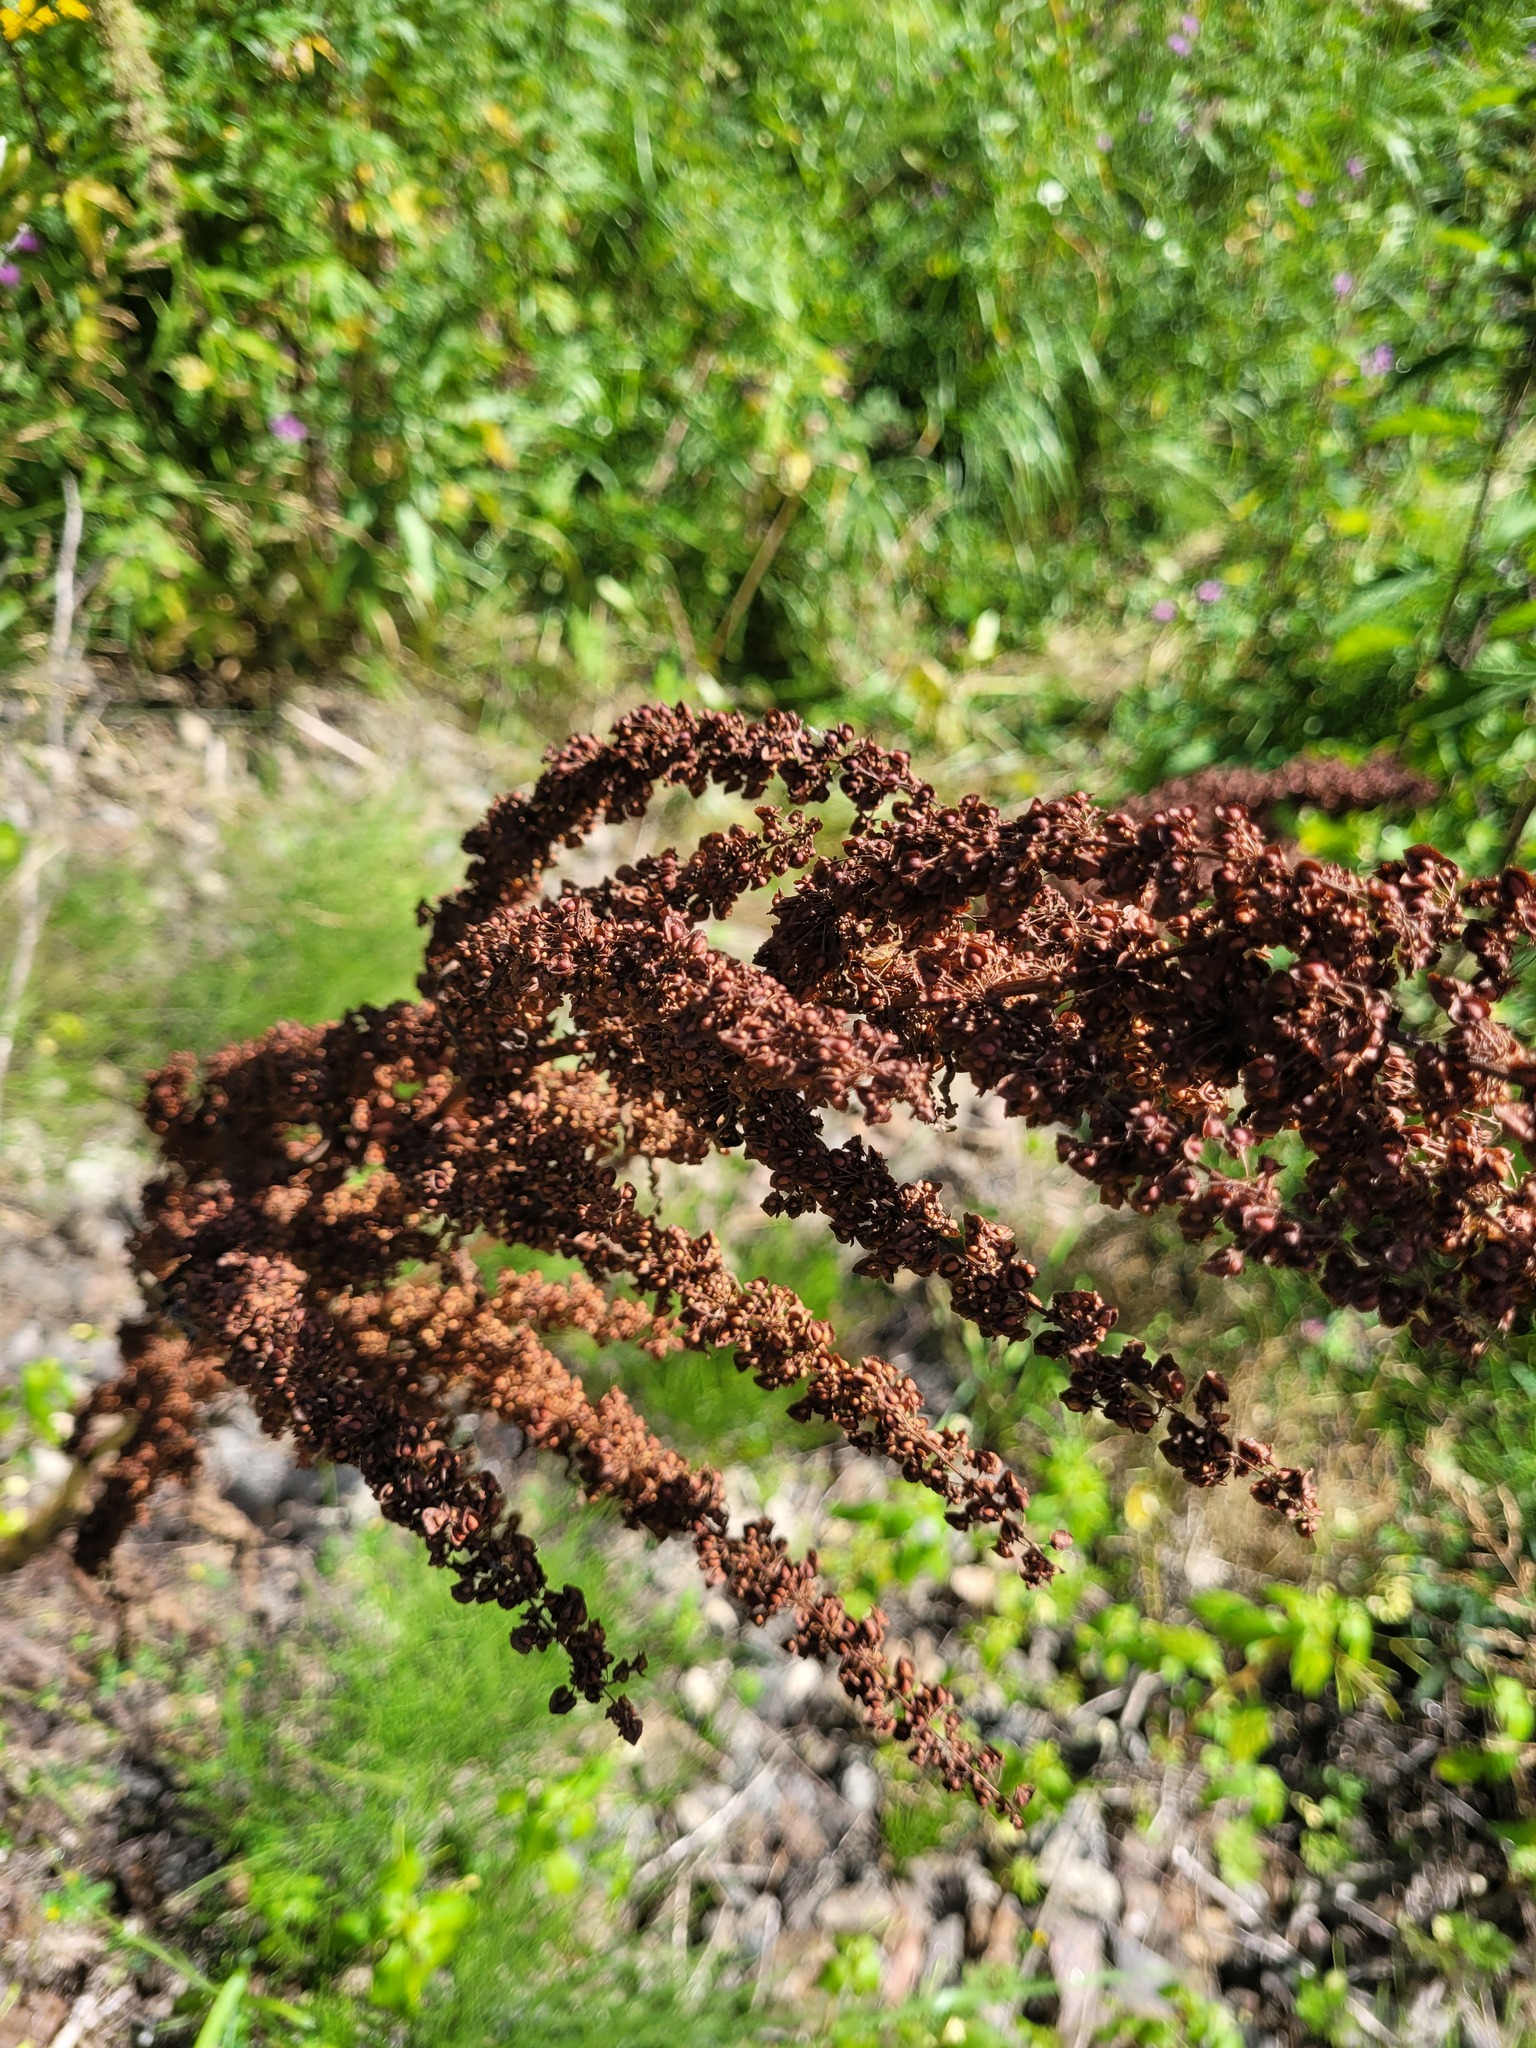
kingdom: Plantae
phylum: Tracheophyta
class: Magnoliopsida
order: Caryophyllales
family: Polygonaceae
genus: Rumex
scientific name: Rumex crispus
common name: Curled dock
